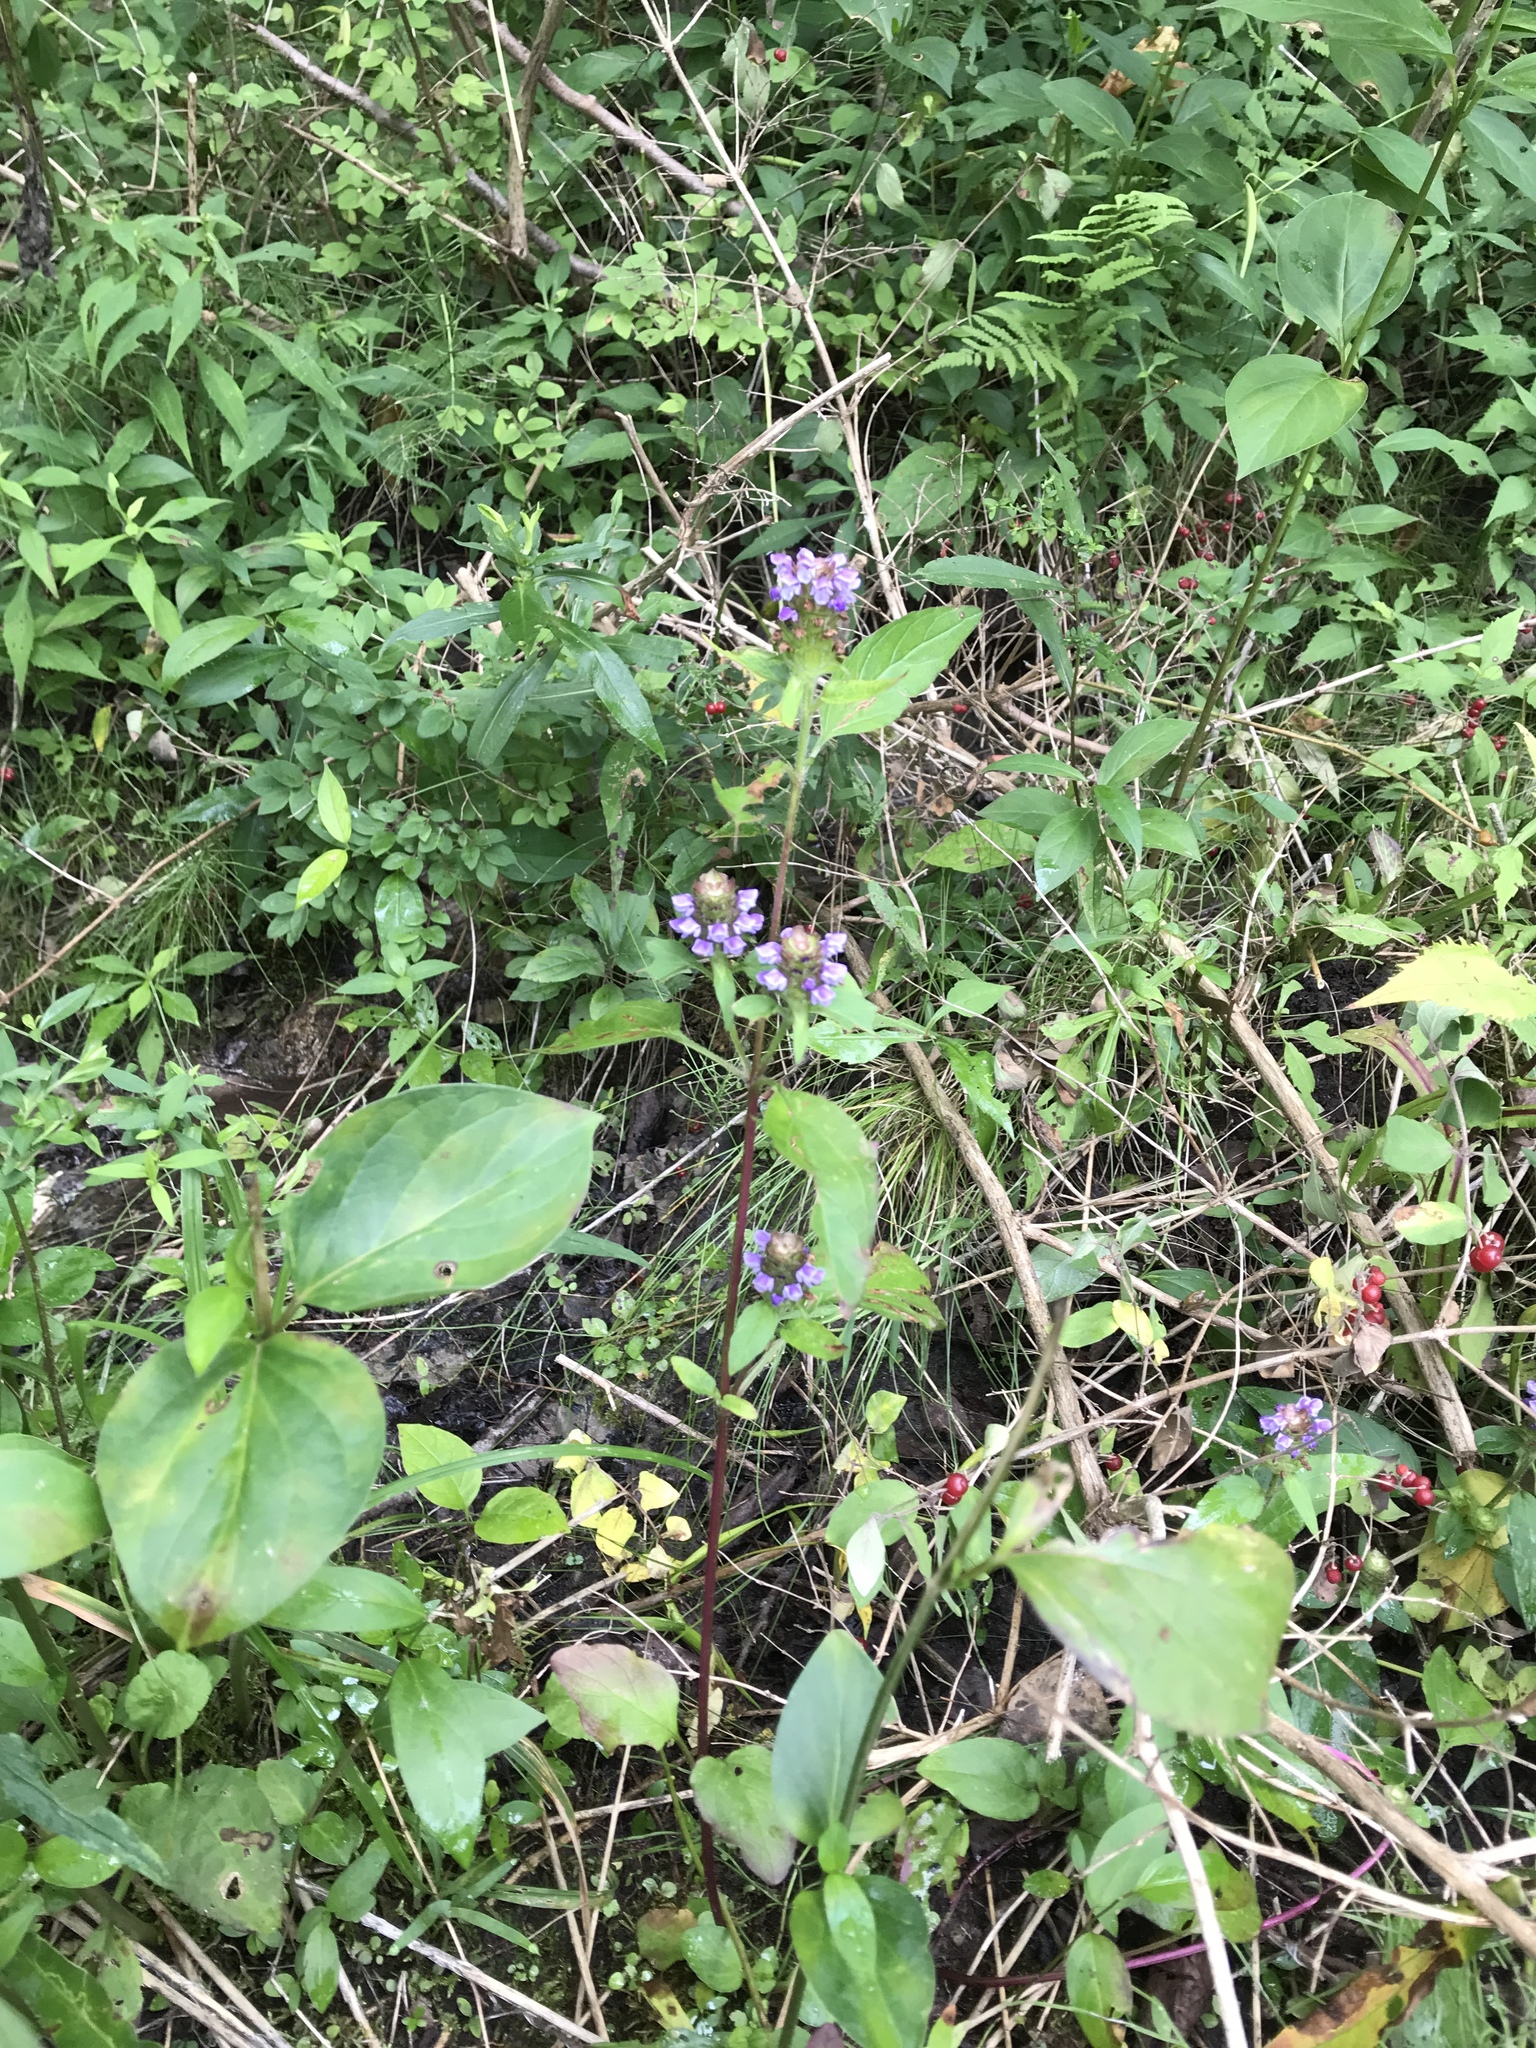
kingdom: Plantae
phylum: Tracheophyta
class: Magnoliopsida
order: Lamiales
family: Lamiaceae
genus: Prunella
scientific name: Prunella vulgaris
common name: Heal-all
